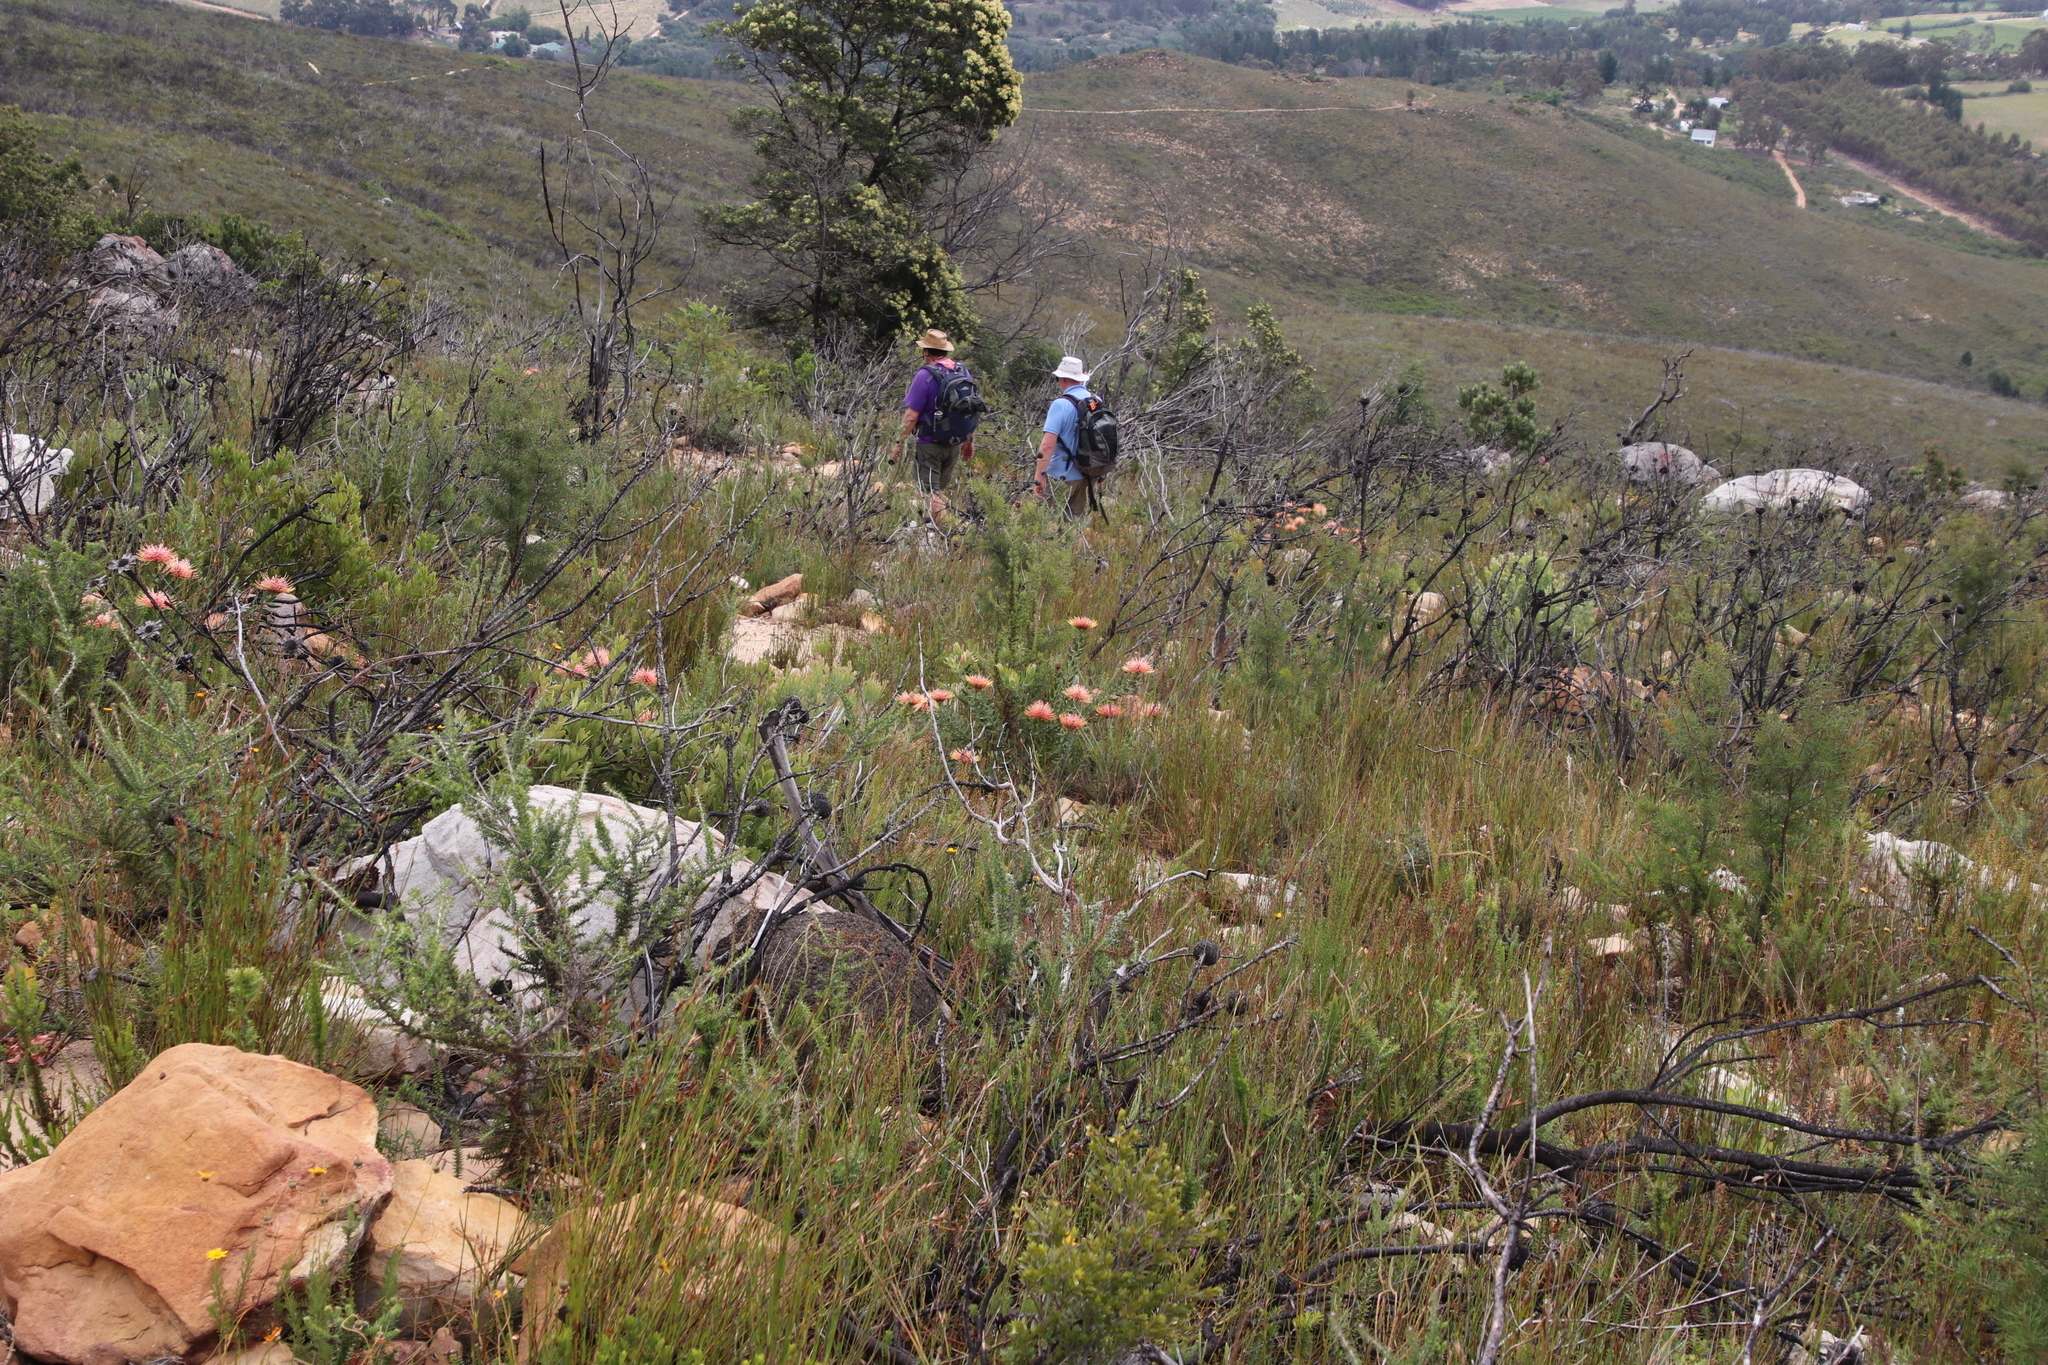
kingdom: Plantae
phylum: Tracheophyta
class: Magnoliopsida
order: Proteales
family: Proteaceae
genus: Leucospermum
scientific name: Leucospermum tottum
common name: Ribbon pincushion
